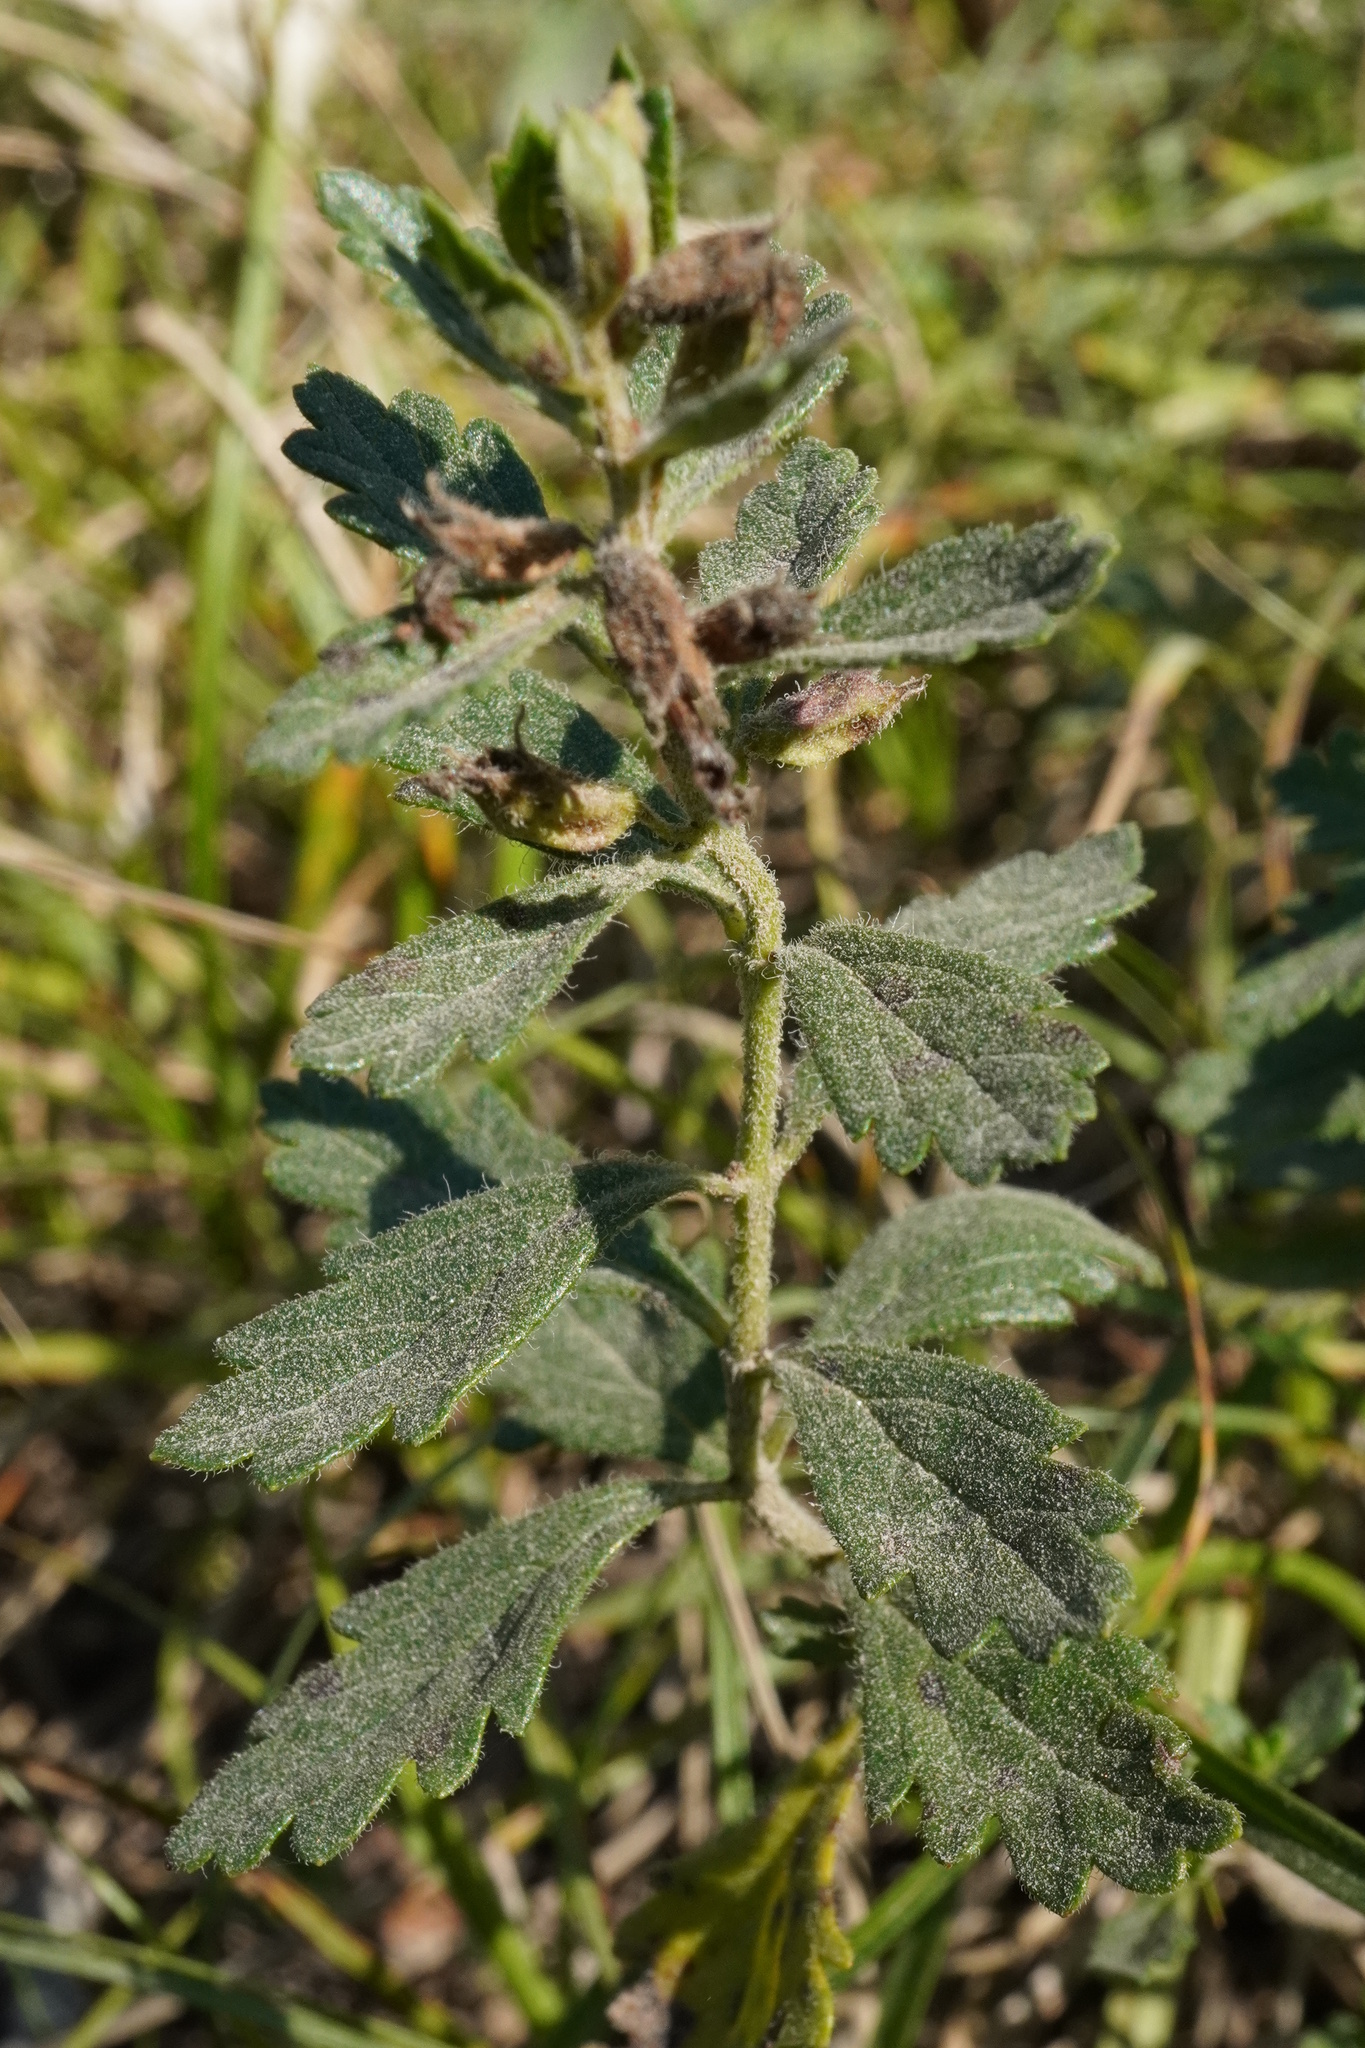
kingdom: Plantae
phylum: Tracheophyta
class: Magnoliopsida
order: Lamiales
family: Lamiaceae
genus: Teucrium
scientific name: Teucrium chamaedrys
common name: Wall germander
